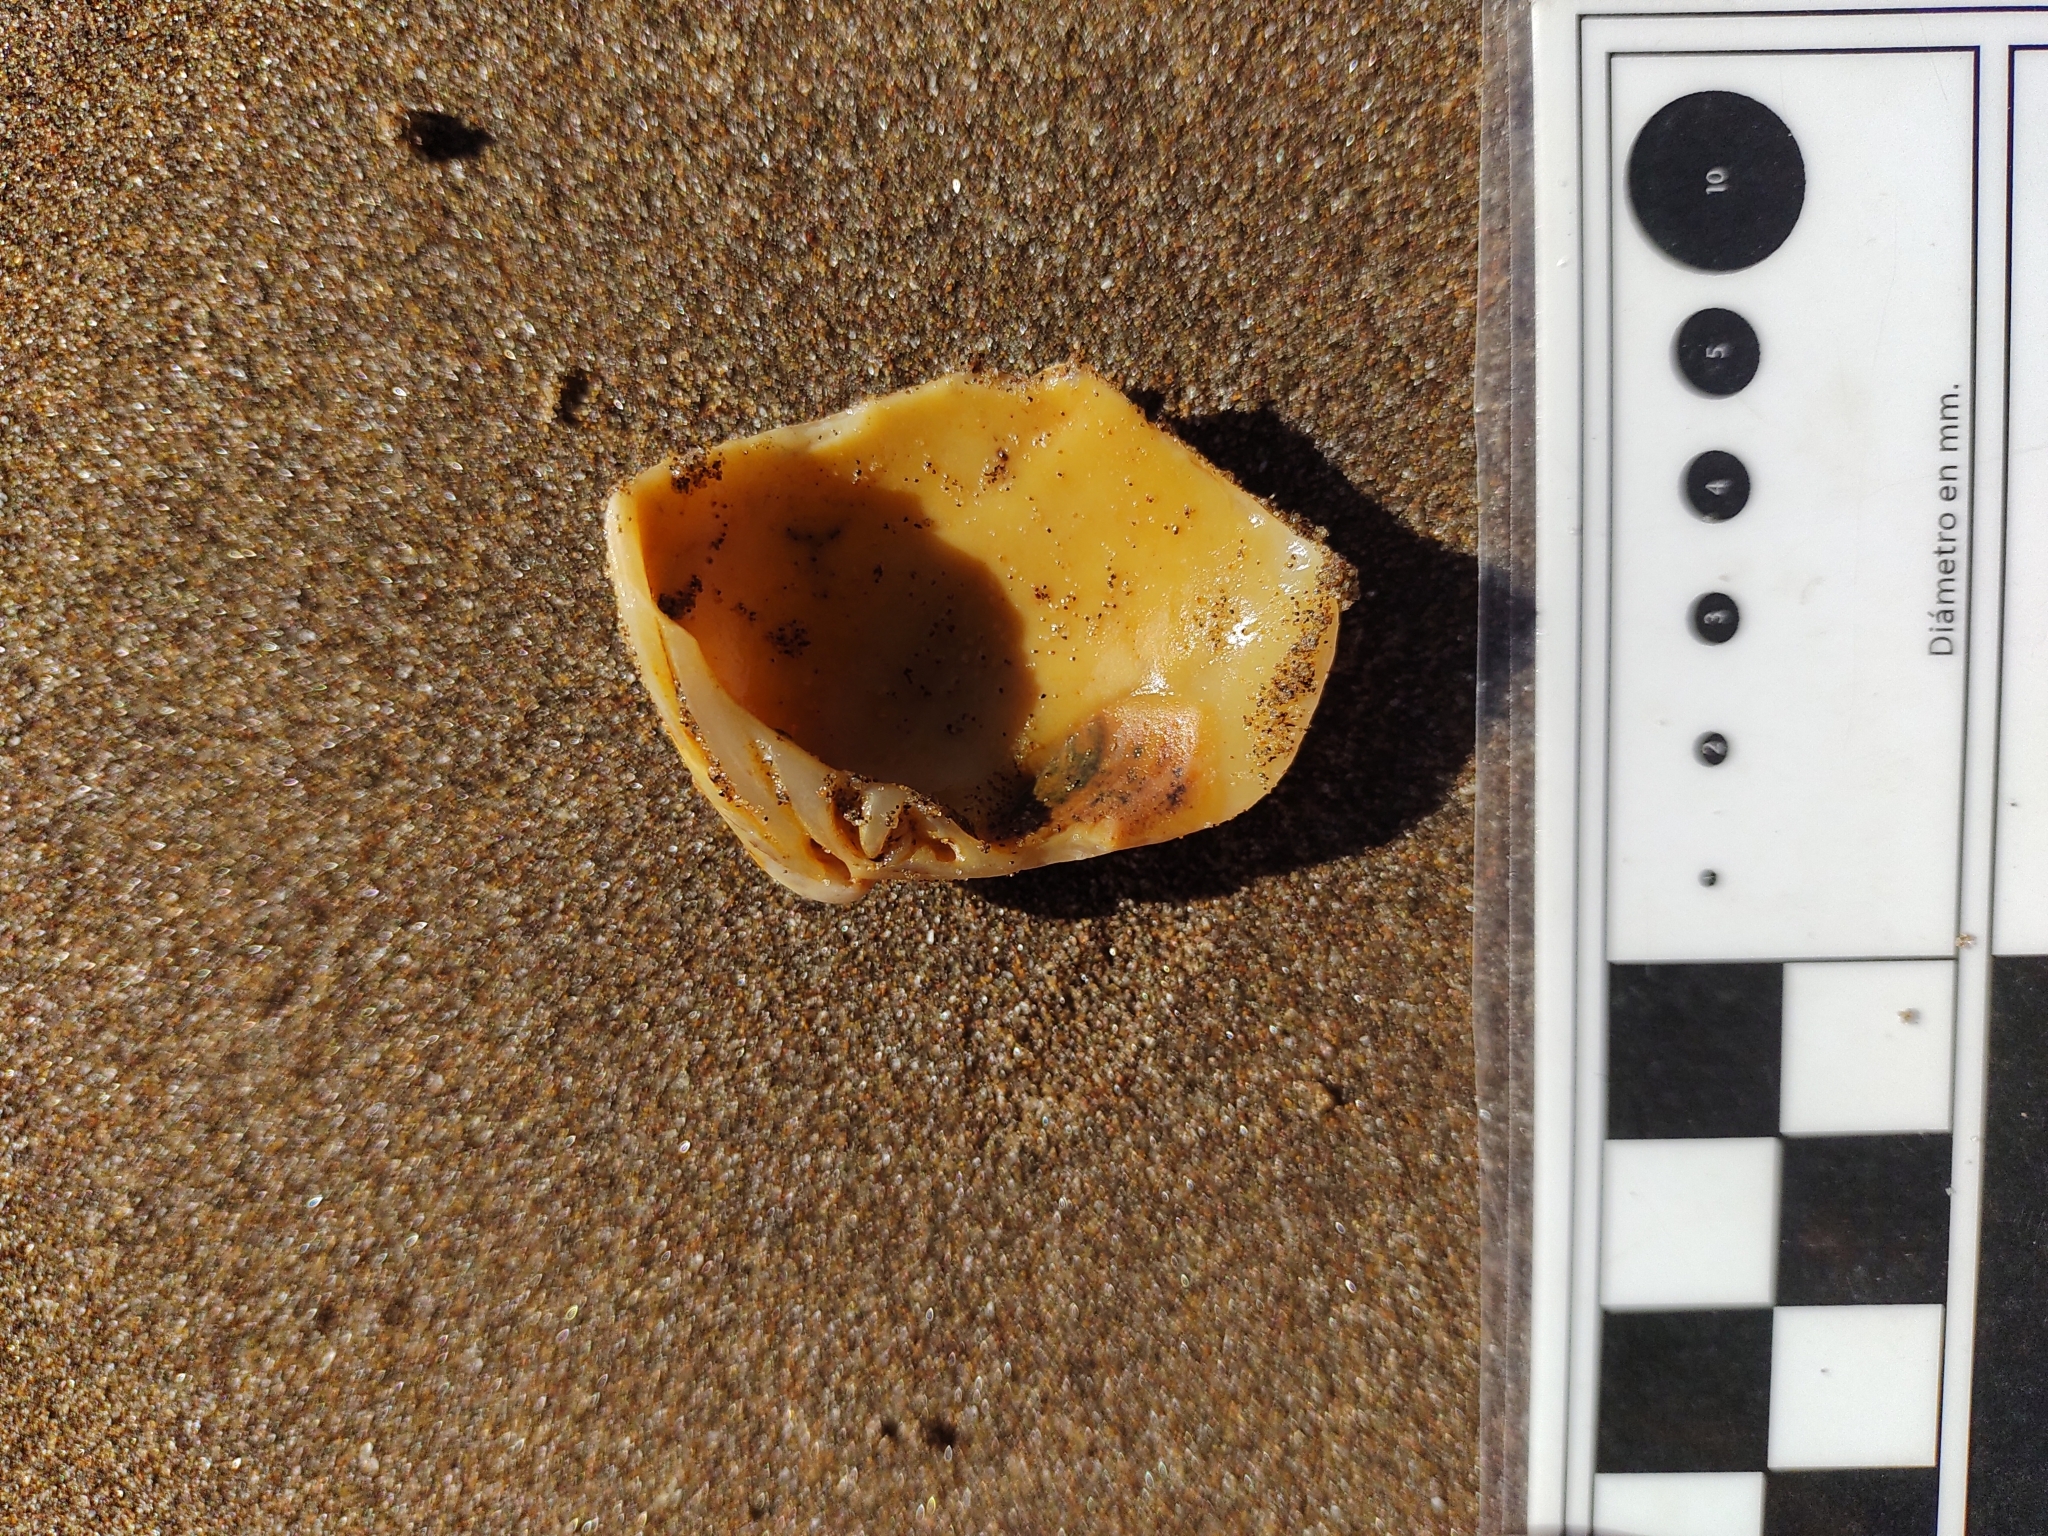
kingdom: Animalia
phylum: Mollusca
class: Bivalvia
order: Venerida
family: Veneridae
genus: Eucallista
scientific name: Eucallista purpurata
